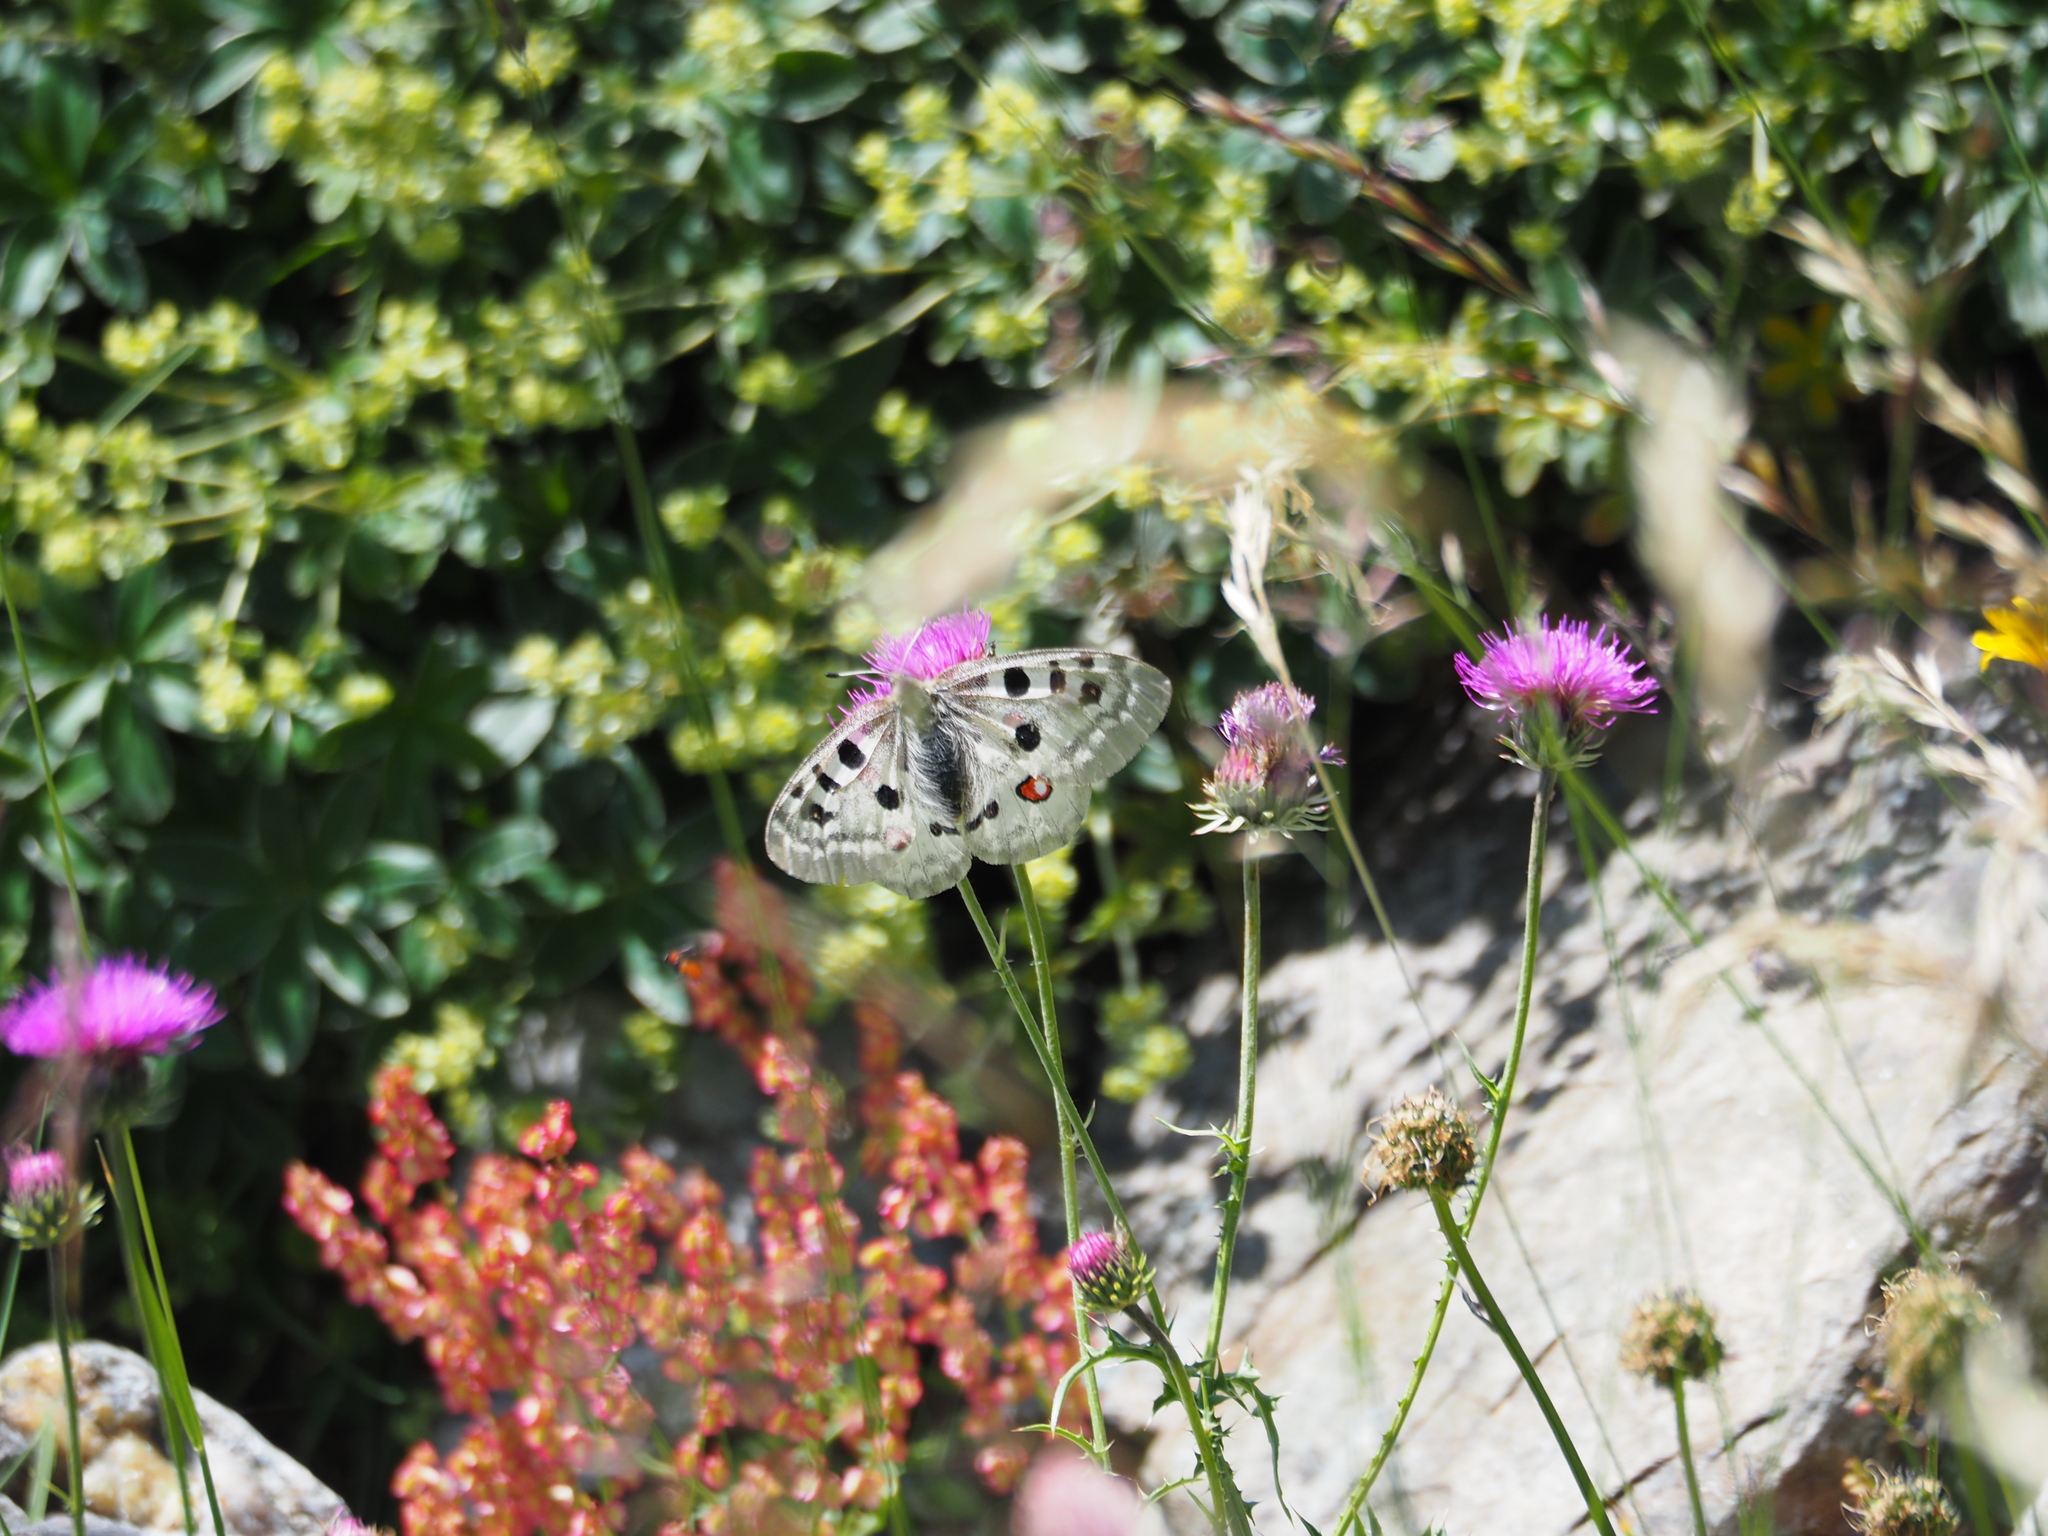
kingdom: Animalia
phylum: Arthropoda
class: Insecta
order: Lepidoptera
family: Papilionidae
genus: Parnassius
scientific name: Parnassius apollo
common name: Apollo
